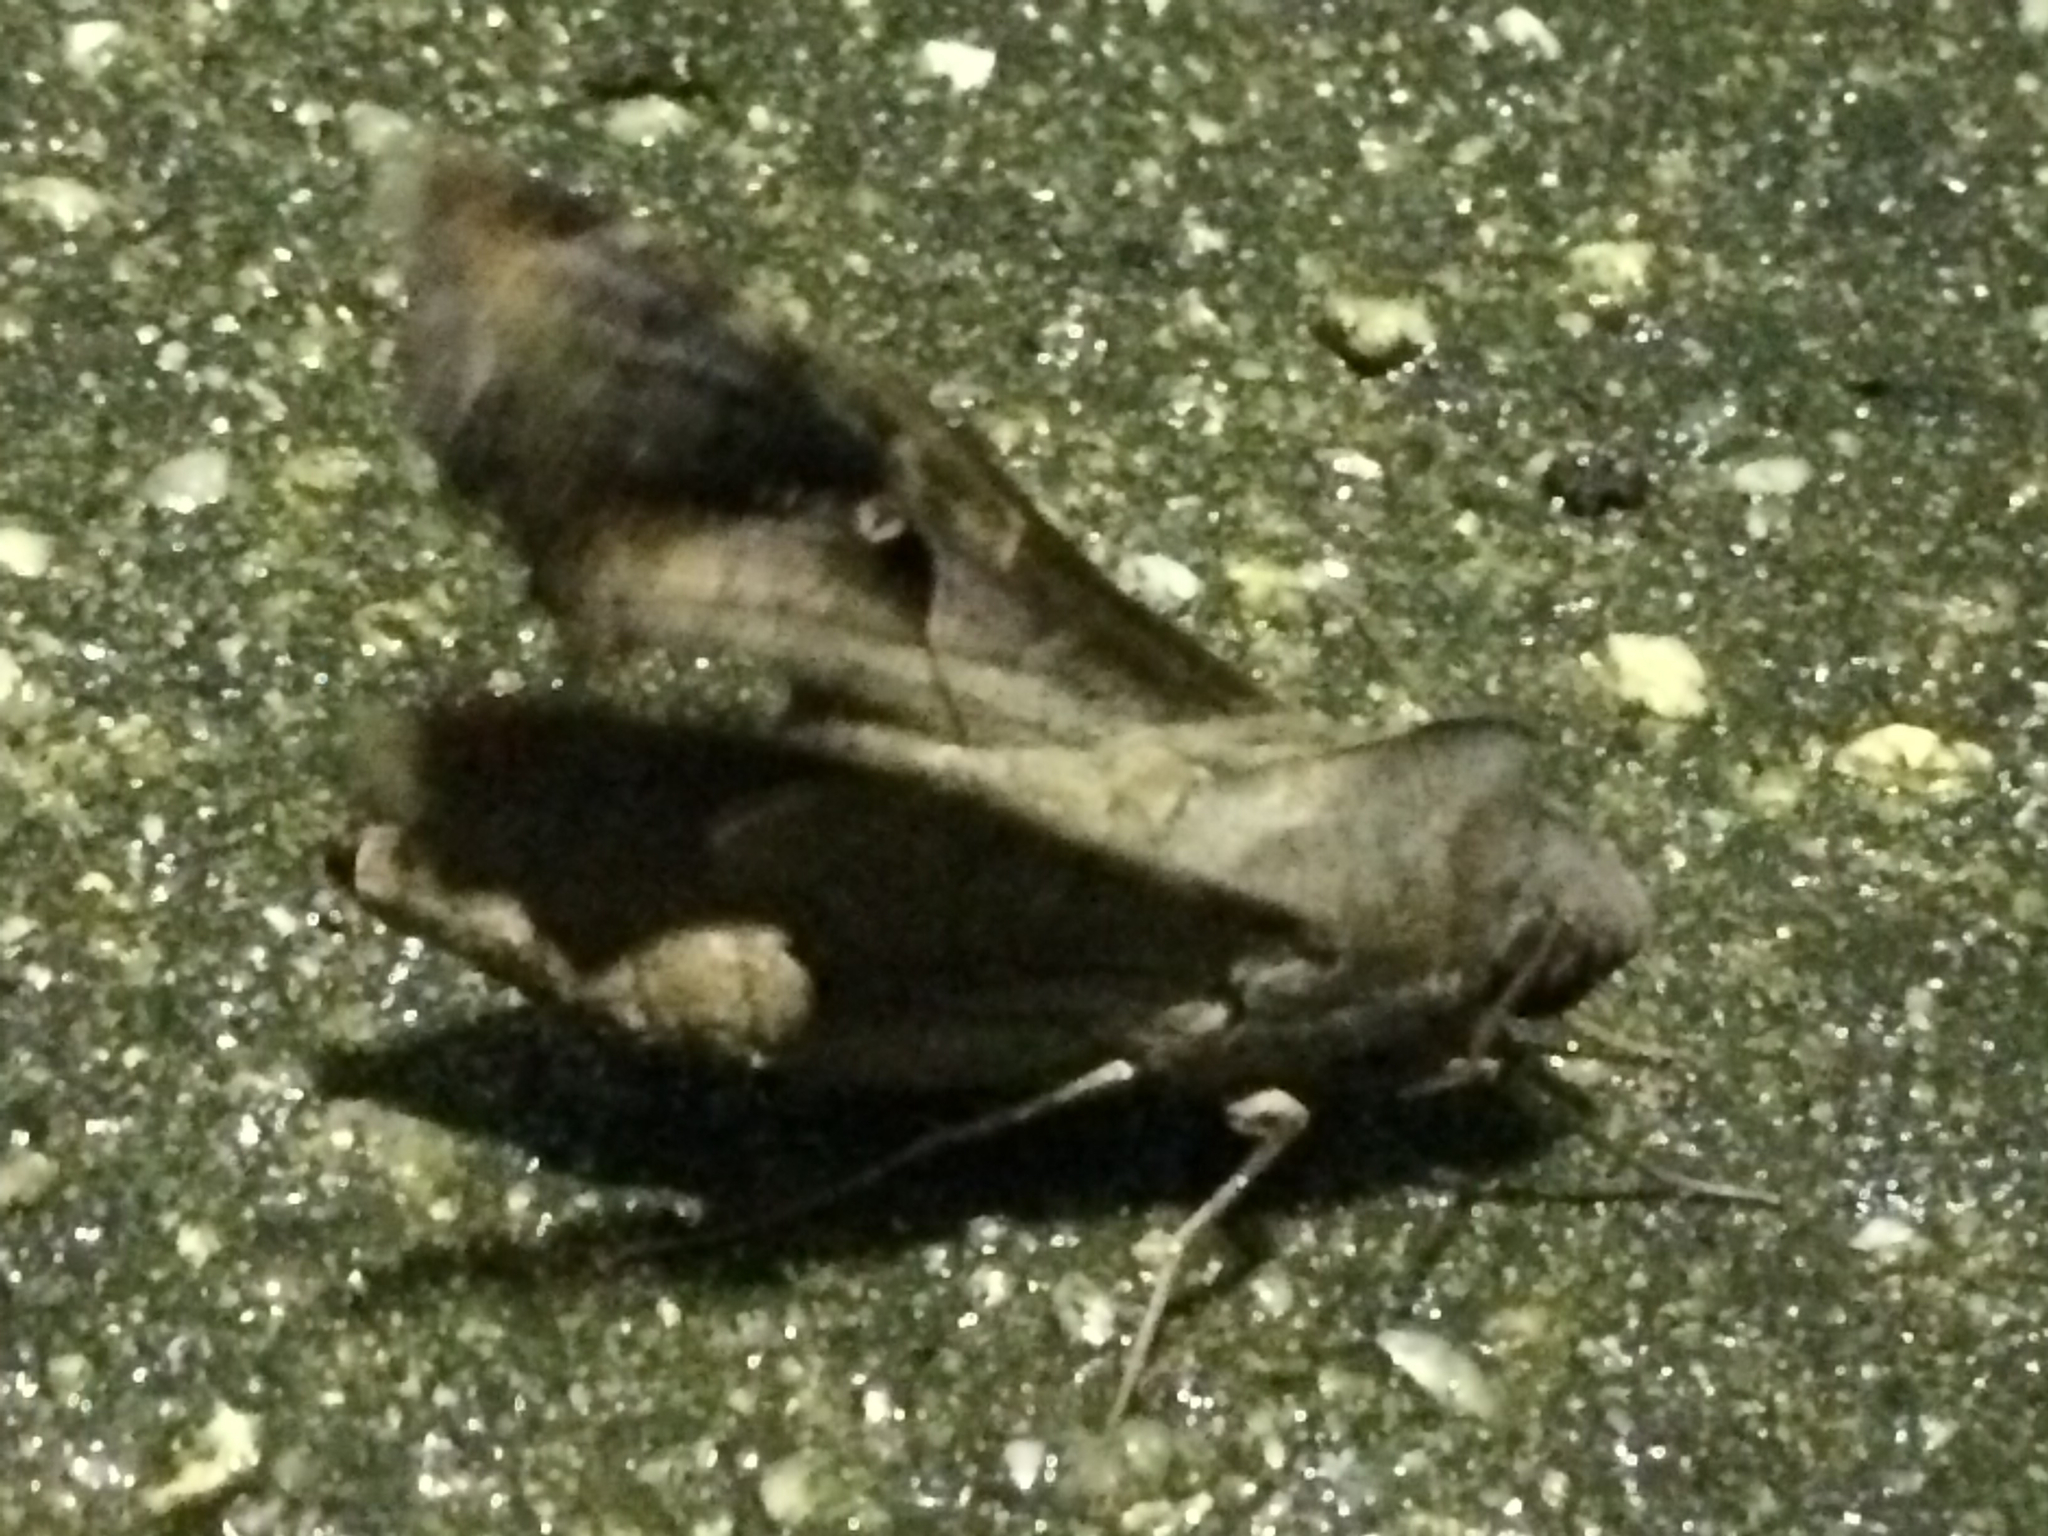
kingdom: Animalia
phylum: Arthropoda
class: Insecta
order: Lepidoptera
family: Sphingidae
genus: Enyo
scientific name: Enyo lugubris
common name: Mournful sphinx
